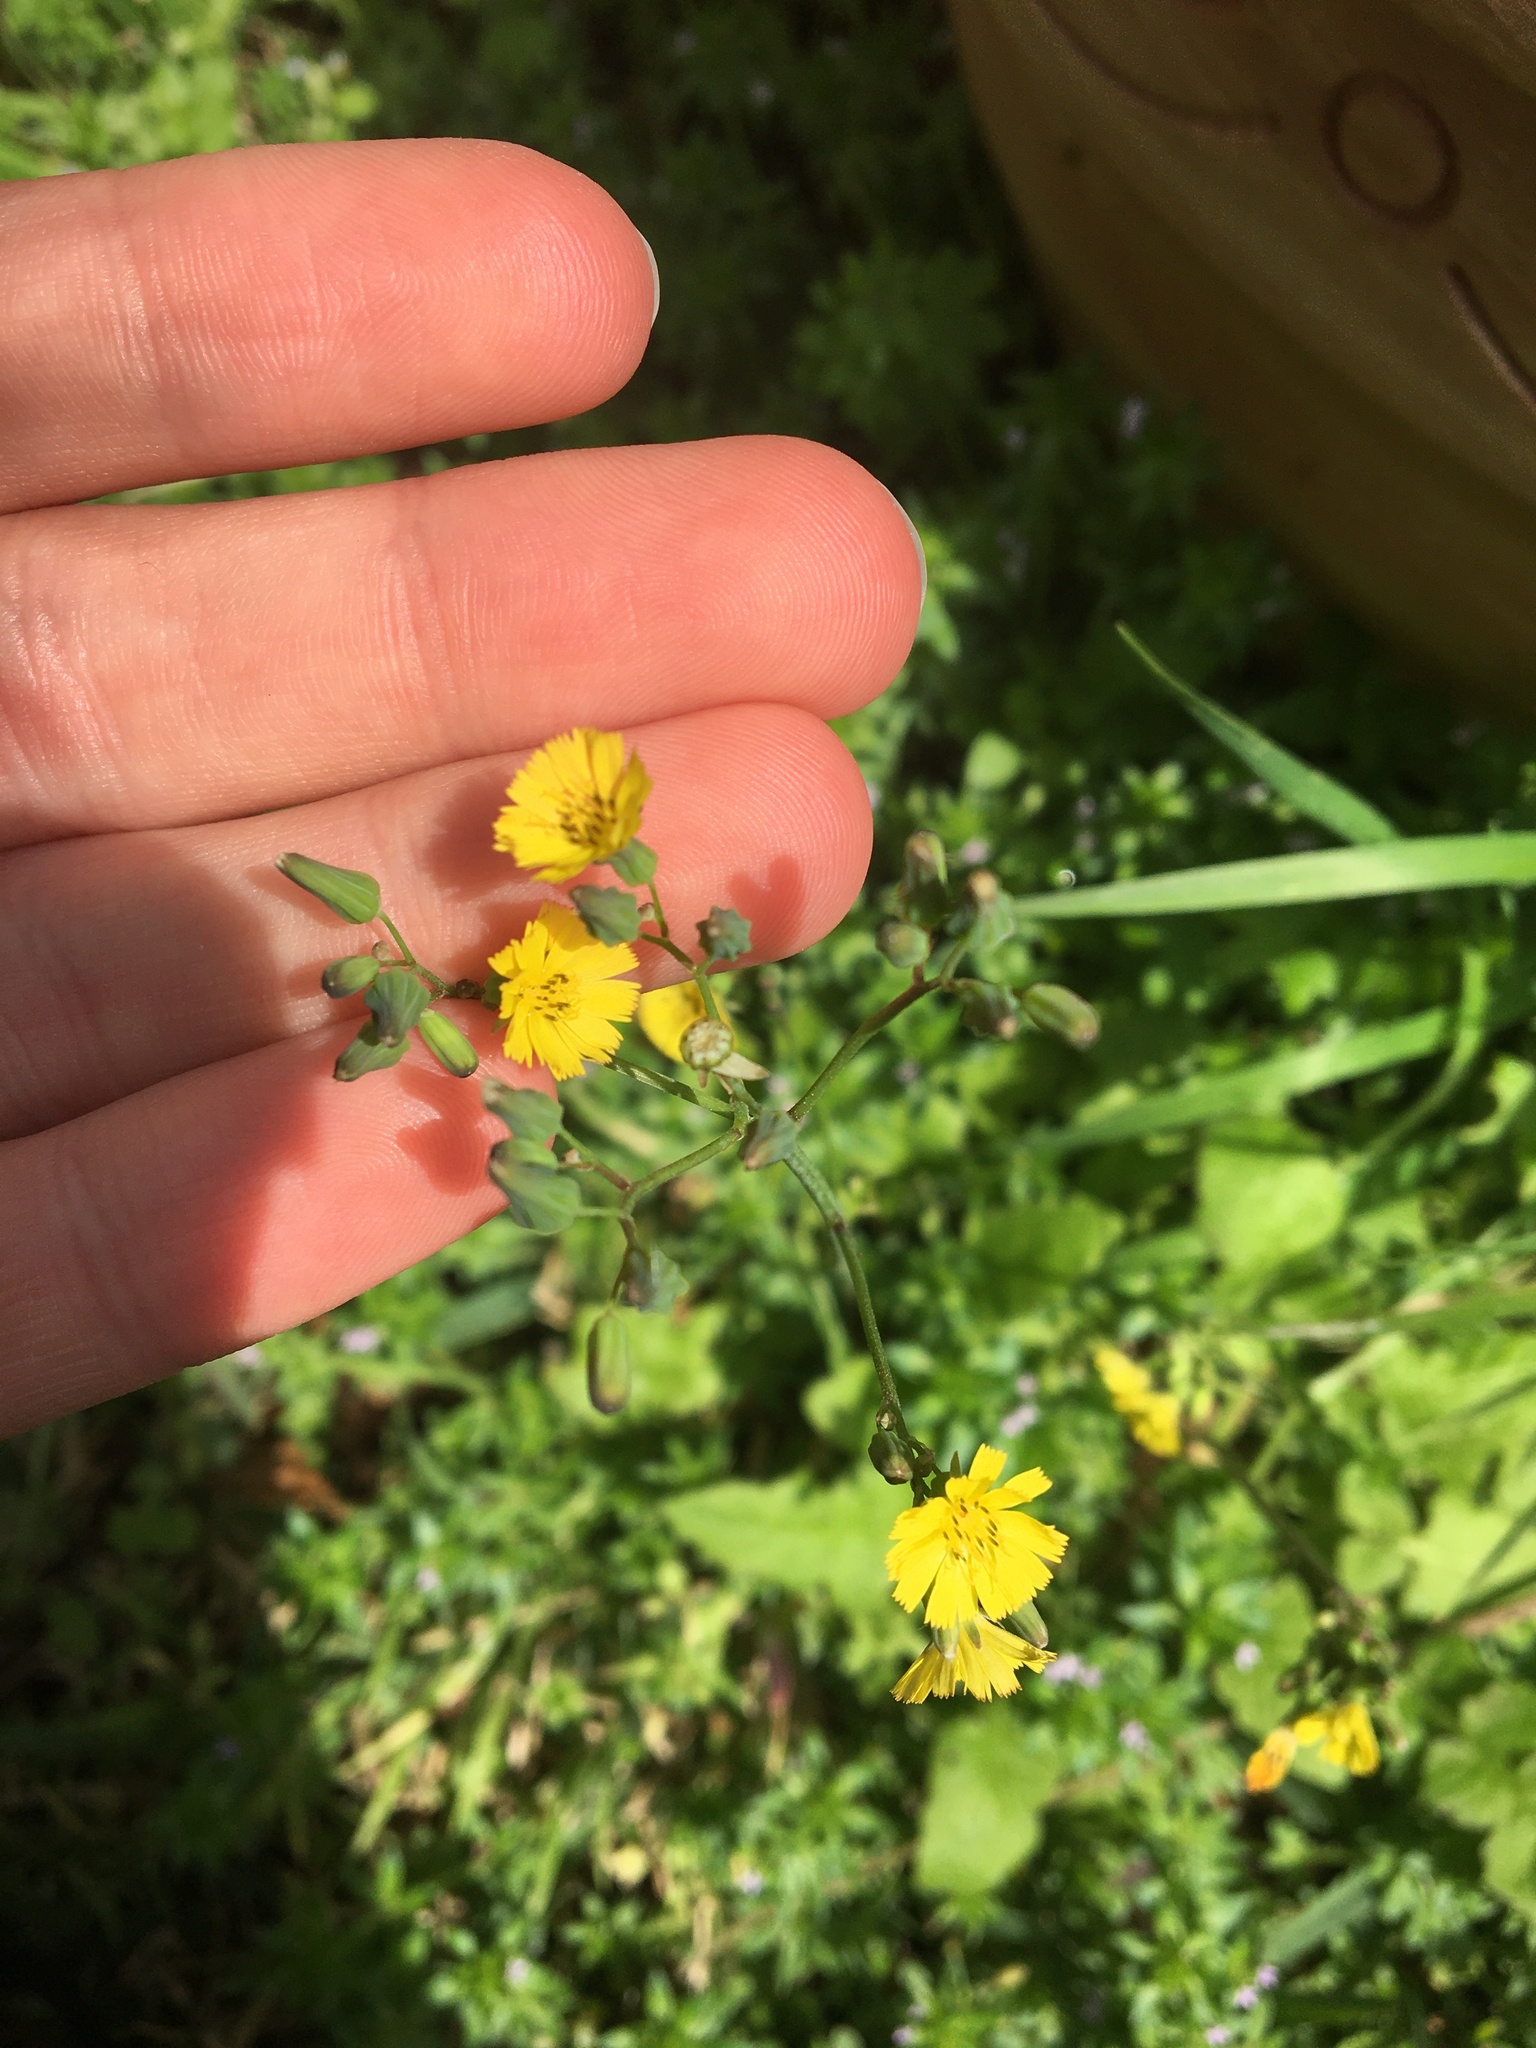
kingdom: Plantae
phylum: Tracheophyta
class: Magnoliopsida
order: Asterales
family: Asteraceae
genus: Youngia
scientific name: Youngia japonica
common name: Oriental false hawksbeard
